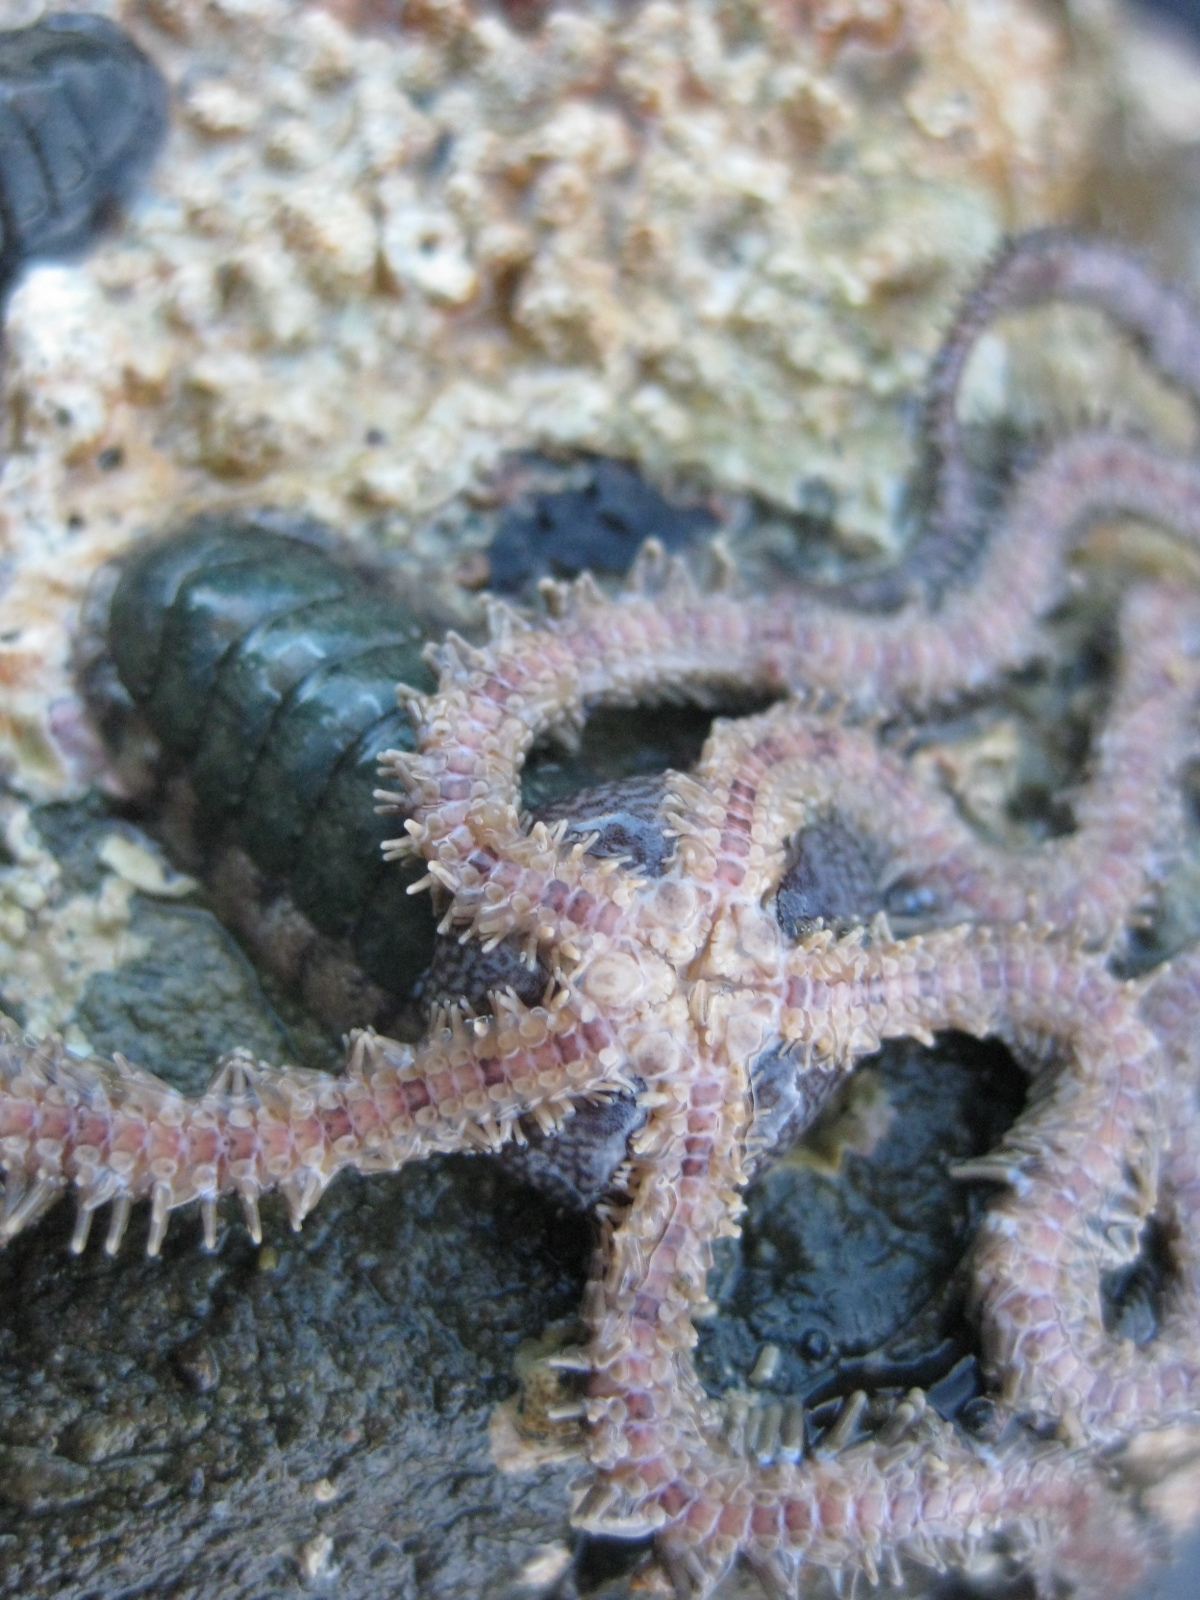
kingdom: Animalia
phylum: Echinodermata
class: Ophiuroidea
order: Amphilepidida
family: Ophionereididae
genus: Ophionereis
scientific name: Ophionereis fasciata
